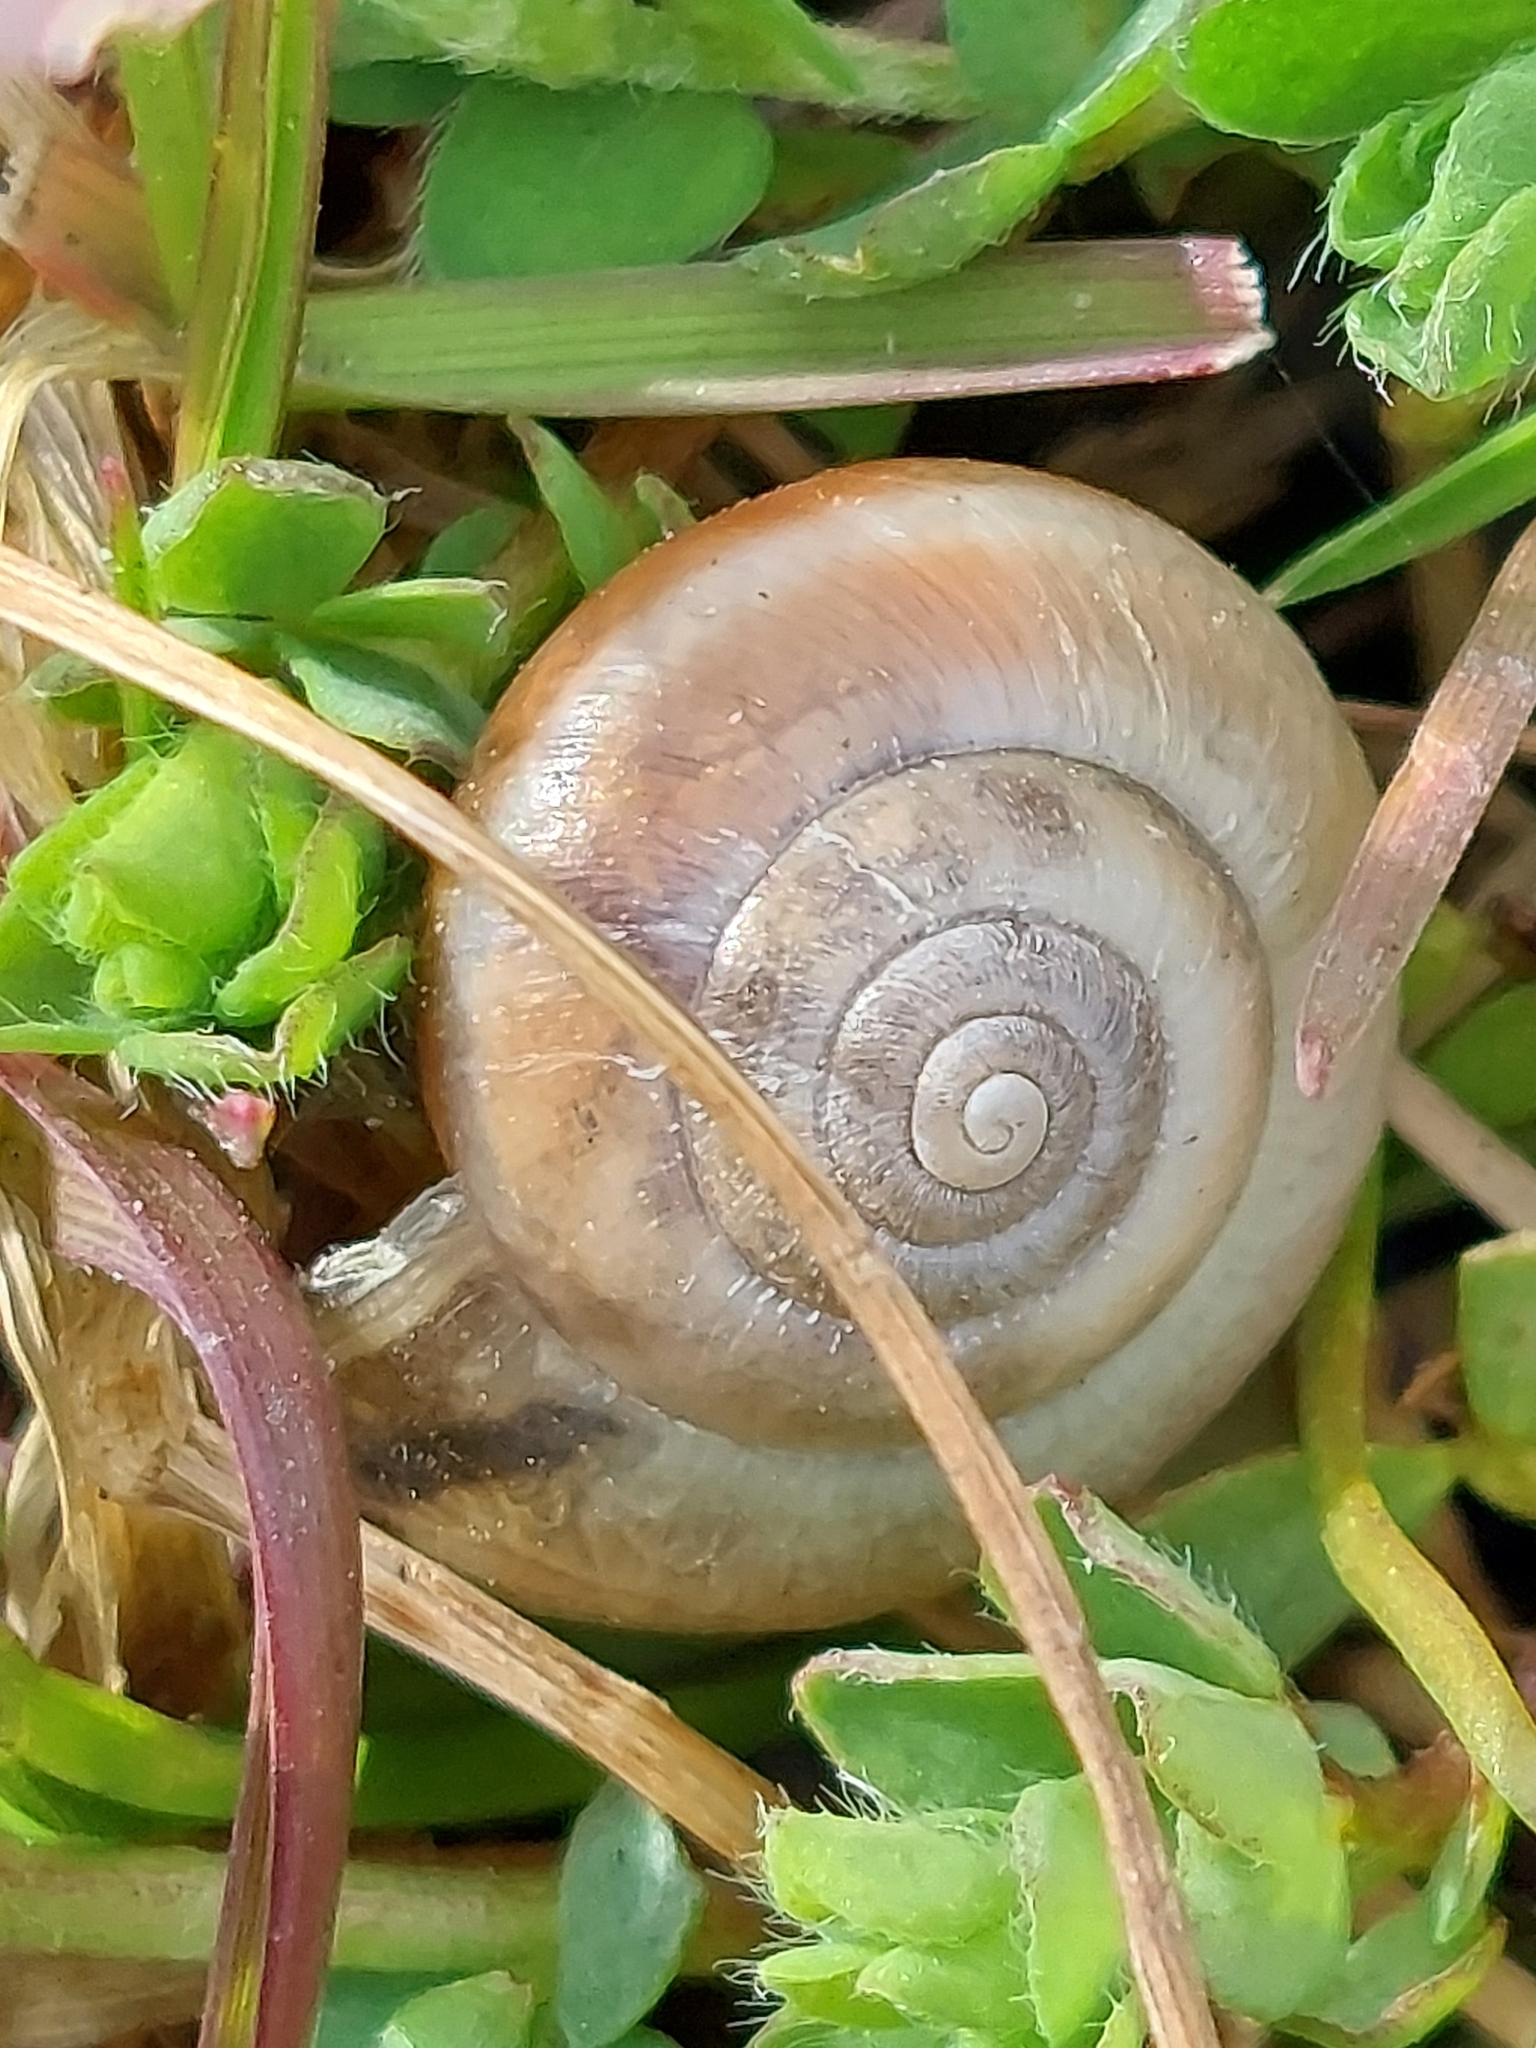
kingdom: Animalia
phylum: Mollusca
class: Gastropoda
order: Stylommatophora
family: Hygromiidae
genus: Monacha
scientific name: Monacha cantiana
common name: Kentish snail
